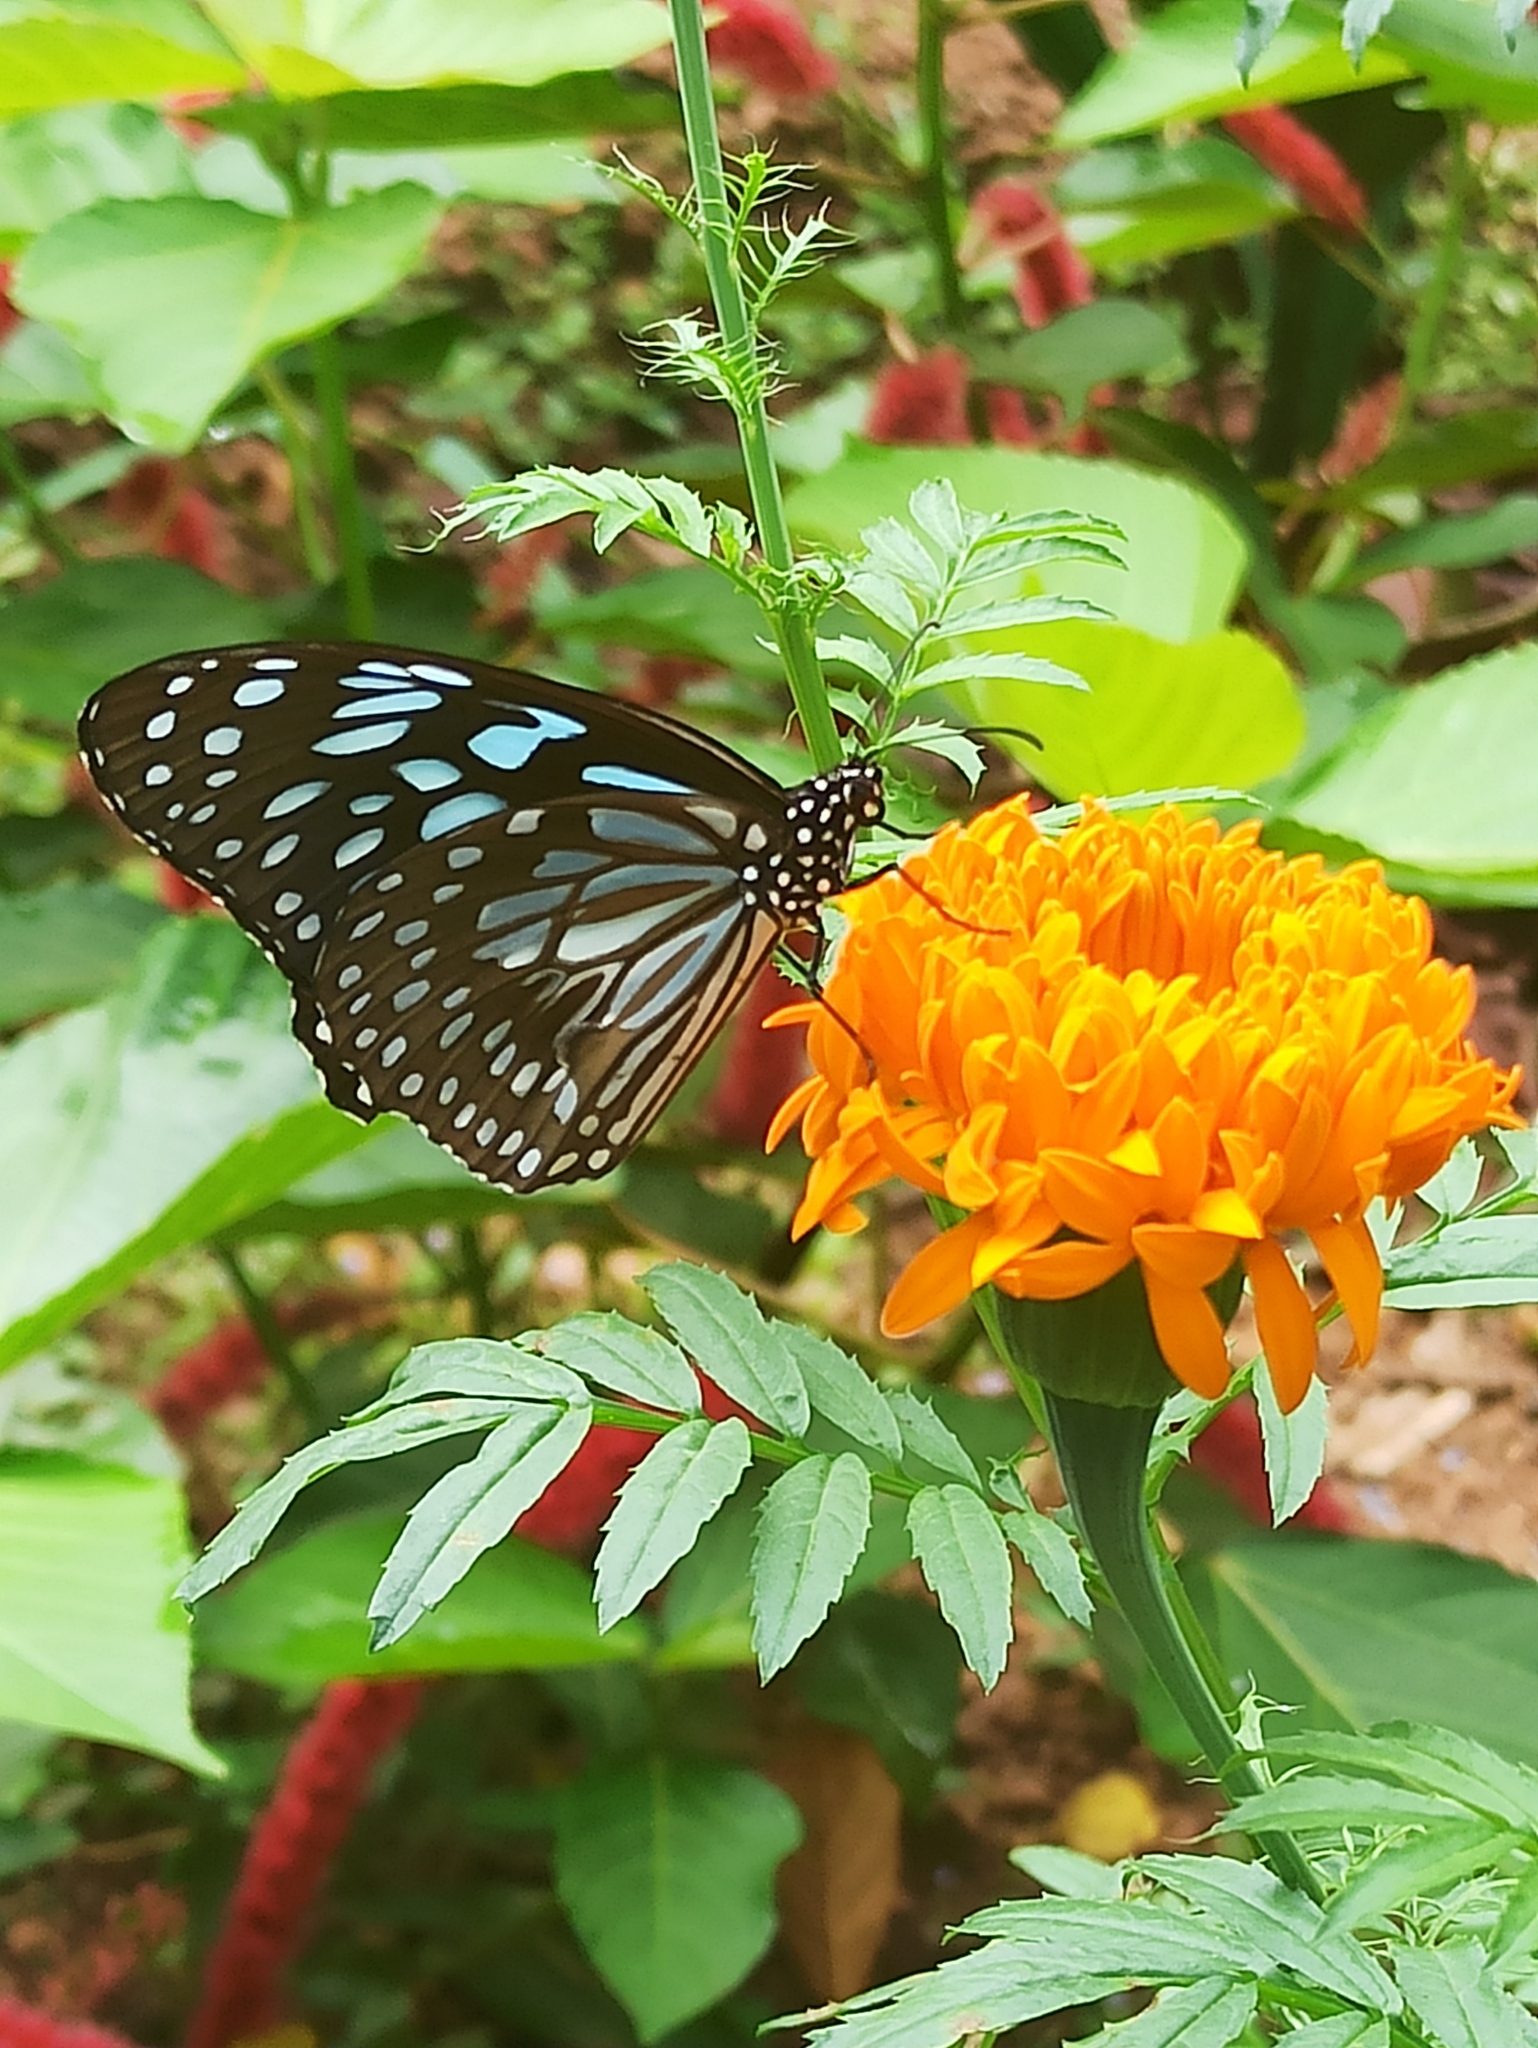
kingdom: Animalia
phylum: Arthropoda
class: Insecta
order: Lepidoptera
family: Nymphalidae
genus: Tirumala
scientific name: Tirumala septentrionis
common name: Dark blue tiger butterfly
